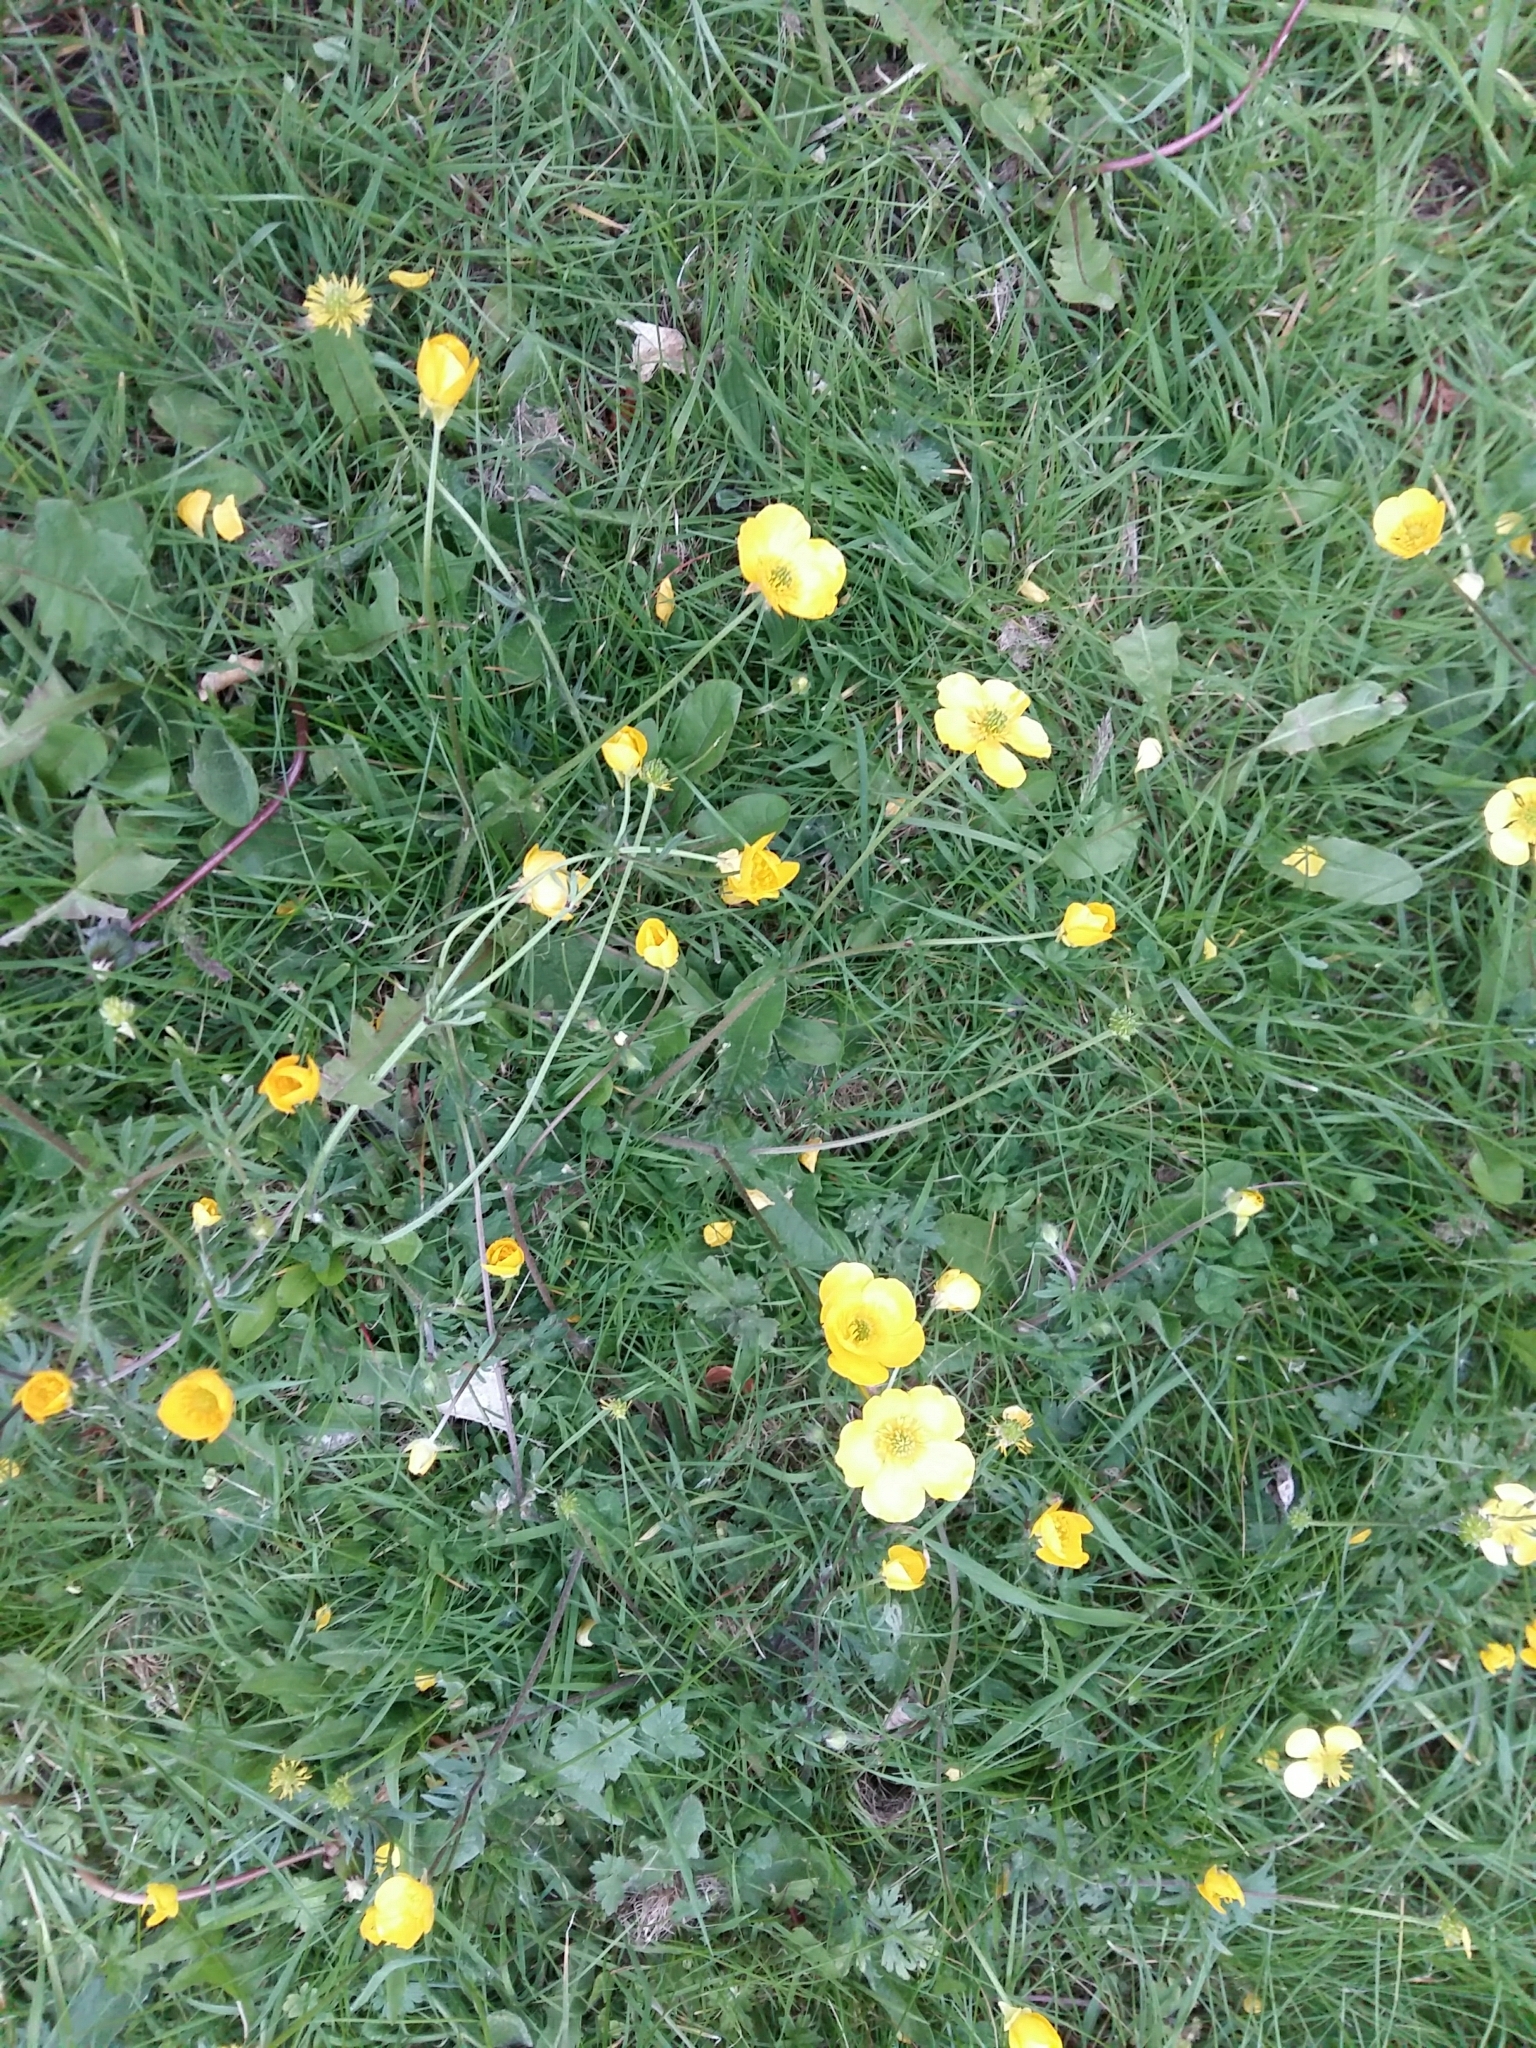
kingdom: Plantae
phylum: Tracheophyta
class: Magnoliopsida
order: Ranunculales
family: Ranunculaceae
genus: Ranunculus
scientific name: Ranunculus bulbosus
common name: Bulbous buttercup
